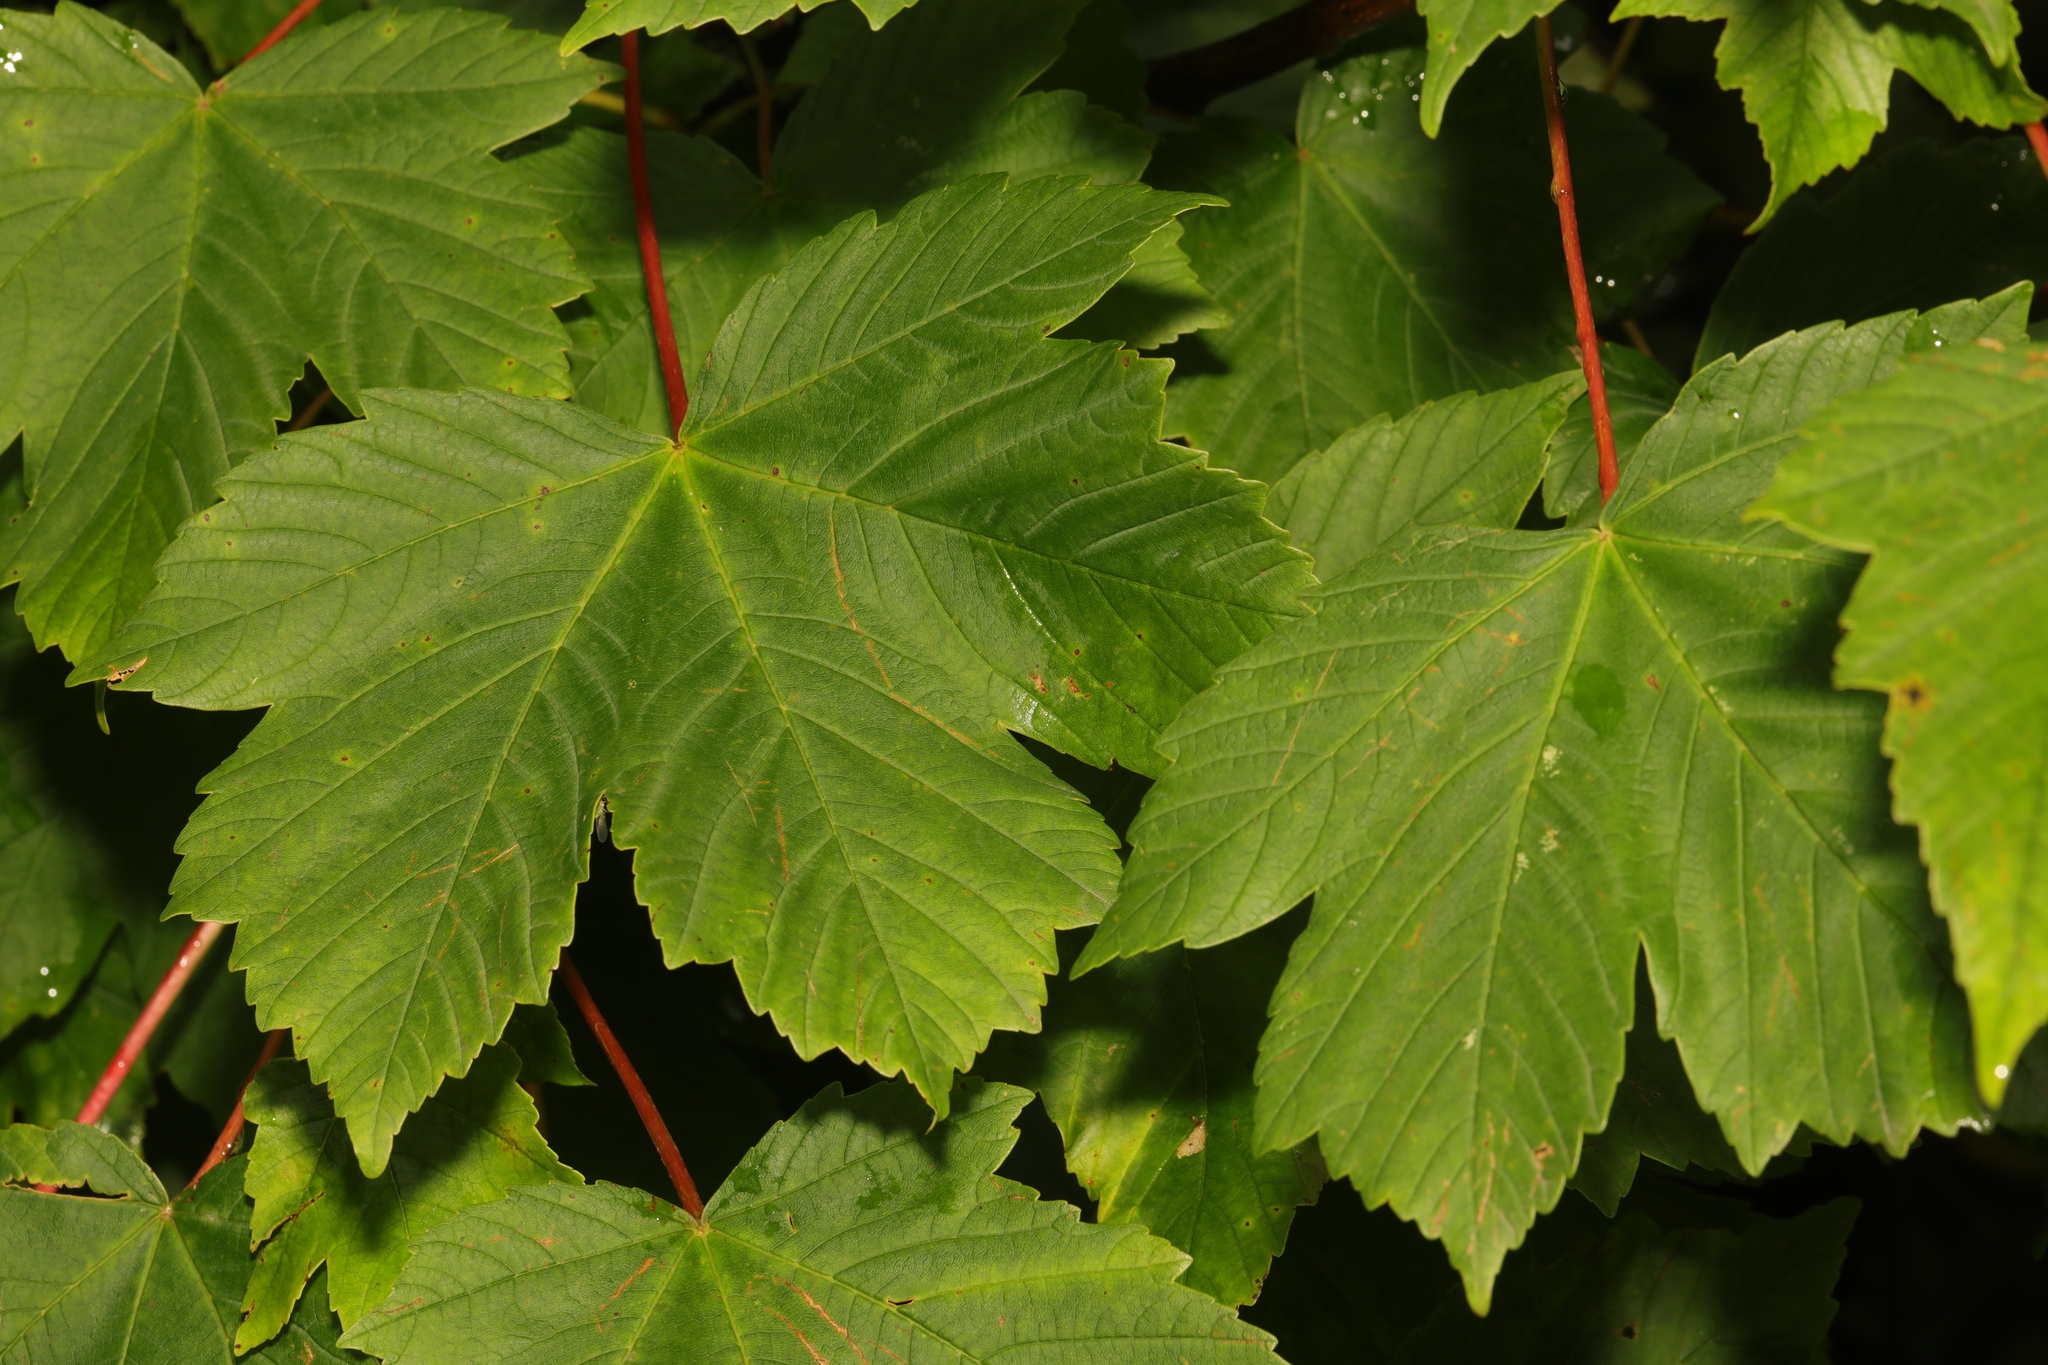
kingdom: Plantae
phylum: Tracheophyta
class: Magnoliopsida
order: Sapindales
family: Sapindaceae
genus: Acer
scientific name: Acer pseudoplatanus
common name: Sycamore
